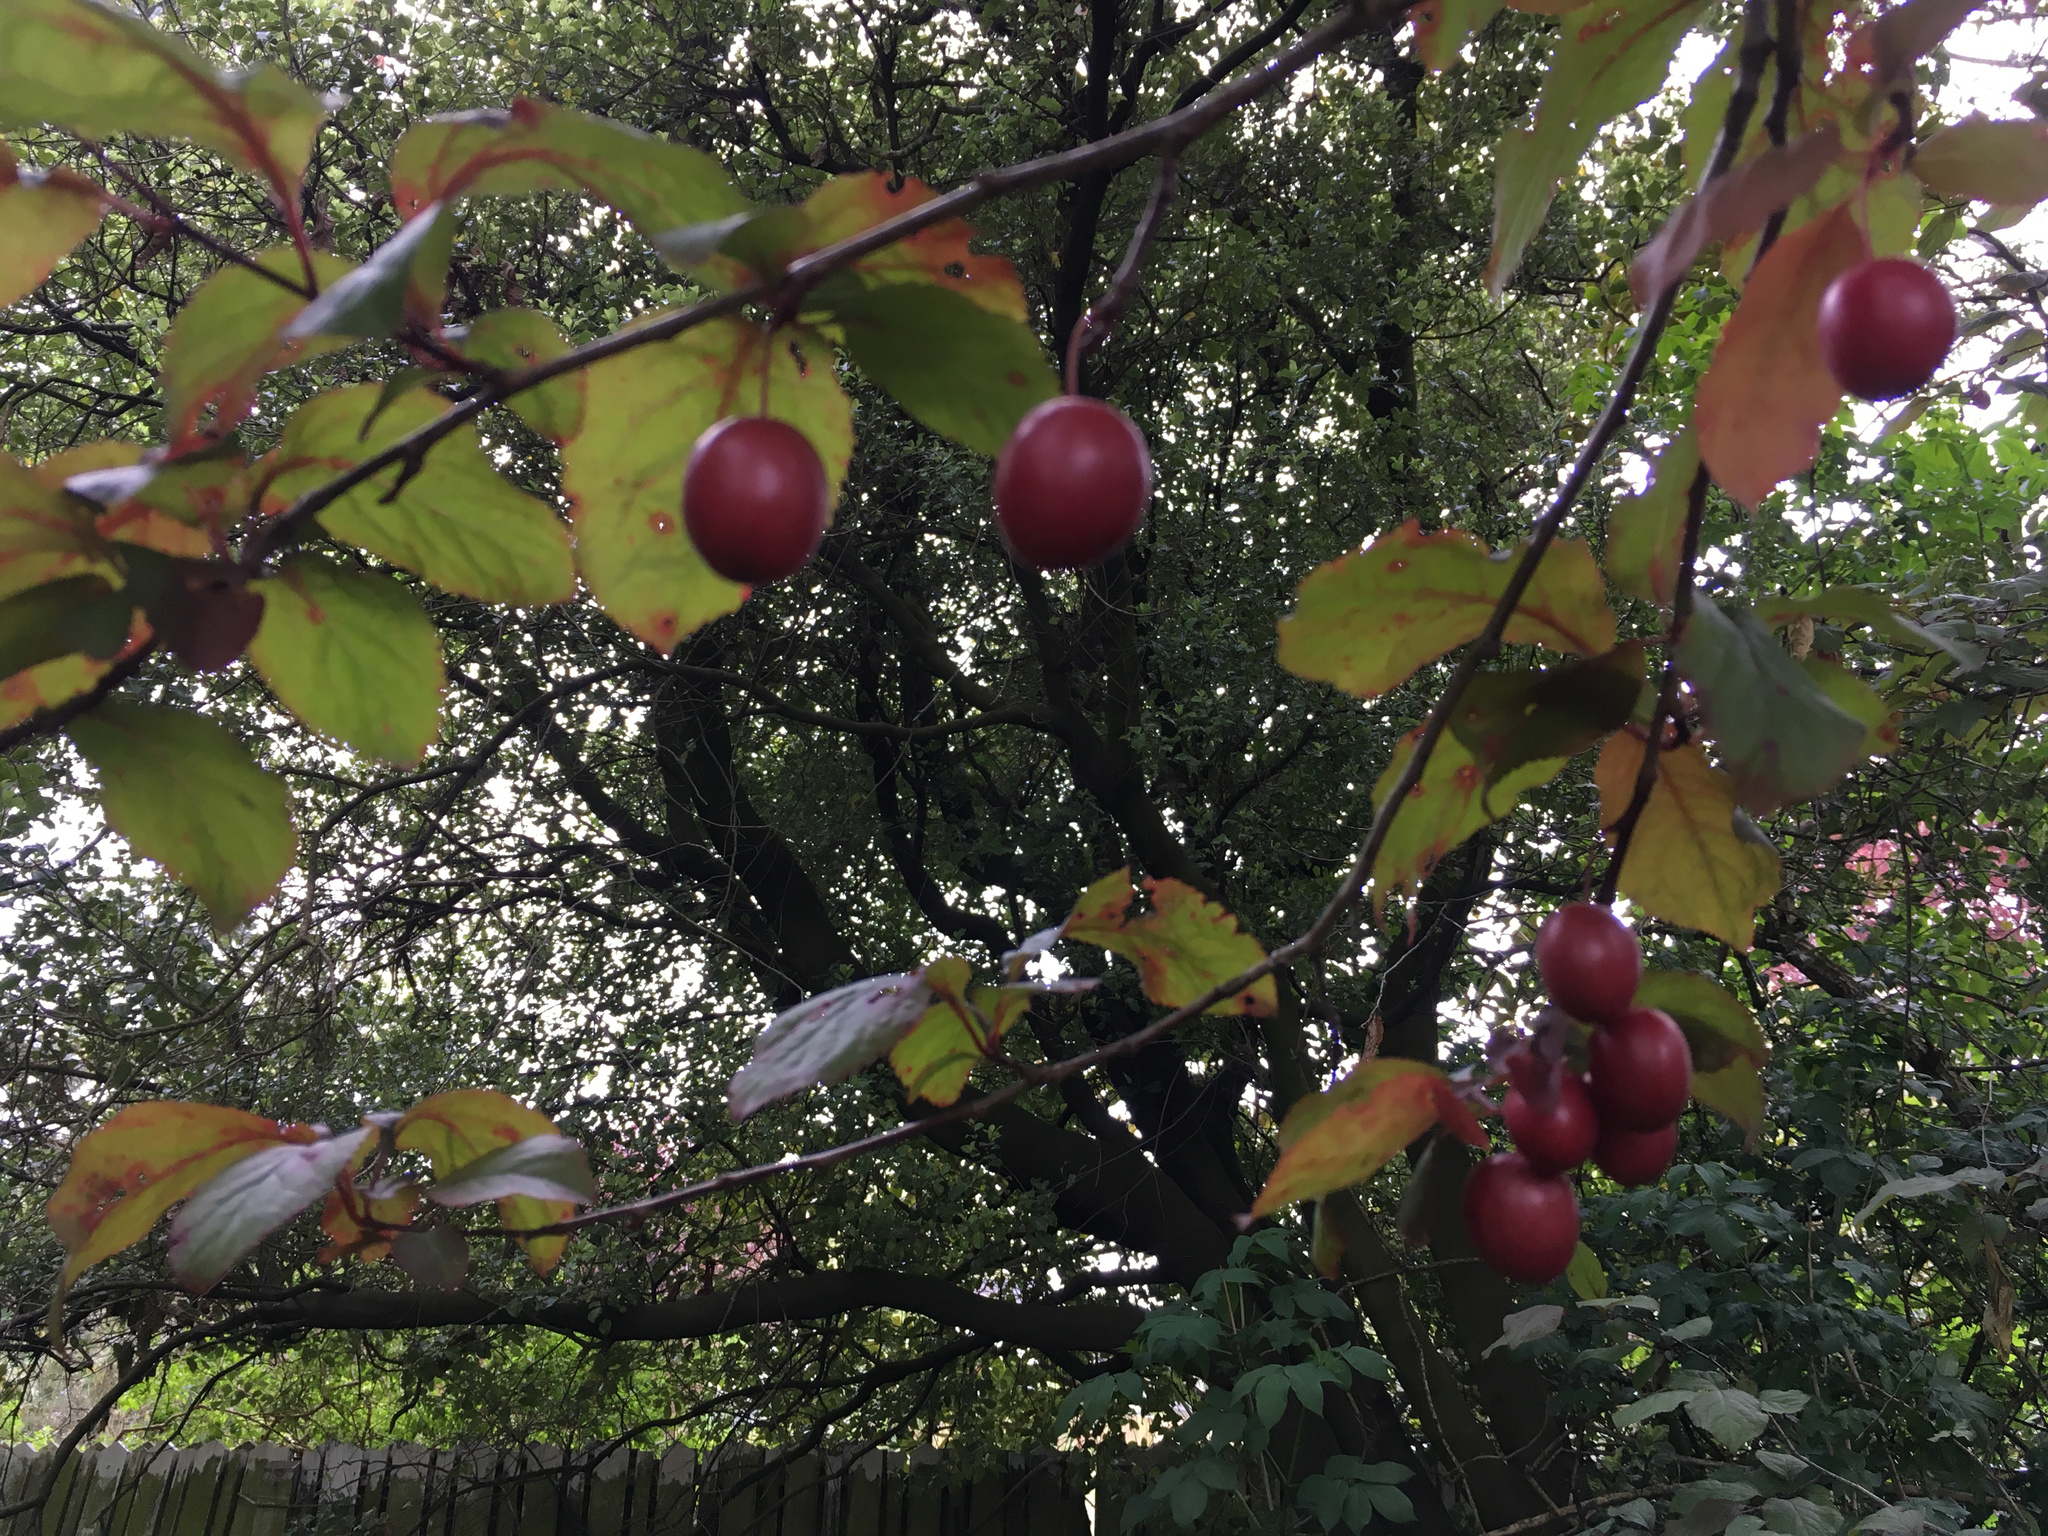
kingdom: Plantae
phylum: Tracheophyta
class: Magnoliopsida
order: Rosales
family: Rosaceae
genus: Prunus
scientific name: Prunus cerasifera
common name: Cherry plum
